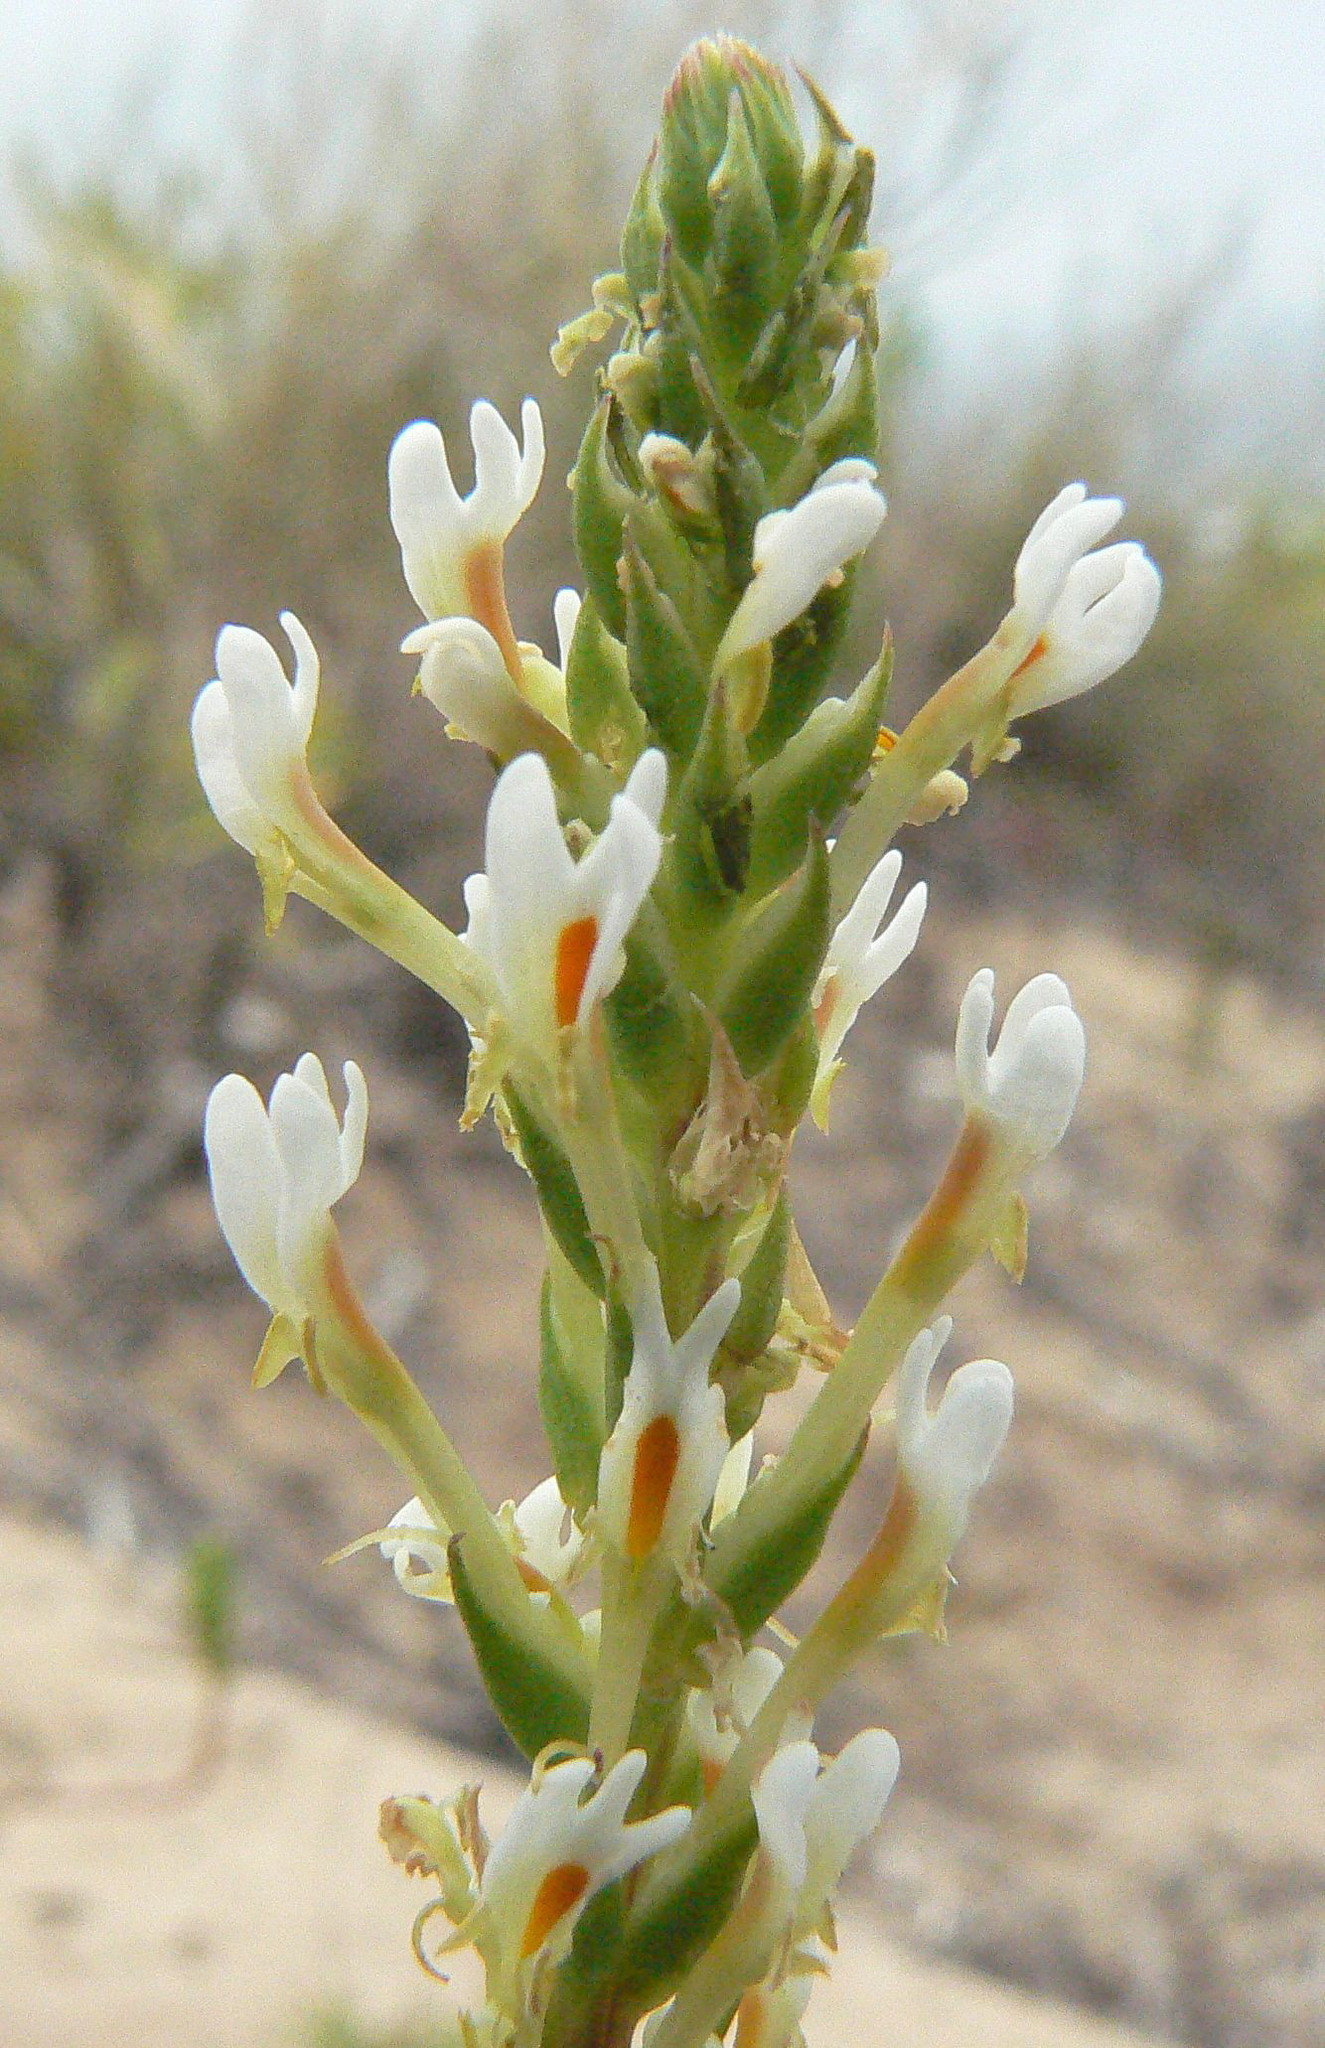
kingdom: Plantae
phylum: Tracheophyta
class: Magnoliopsida
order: Lamiales
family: Scrophulariaceae
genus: Hebenstretia
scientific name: Hebenstretia integrifolia
